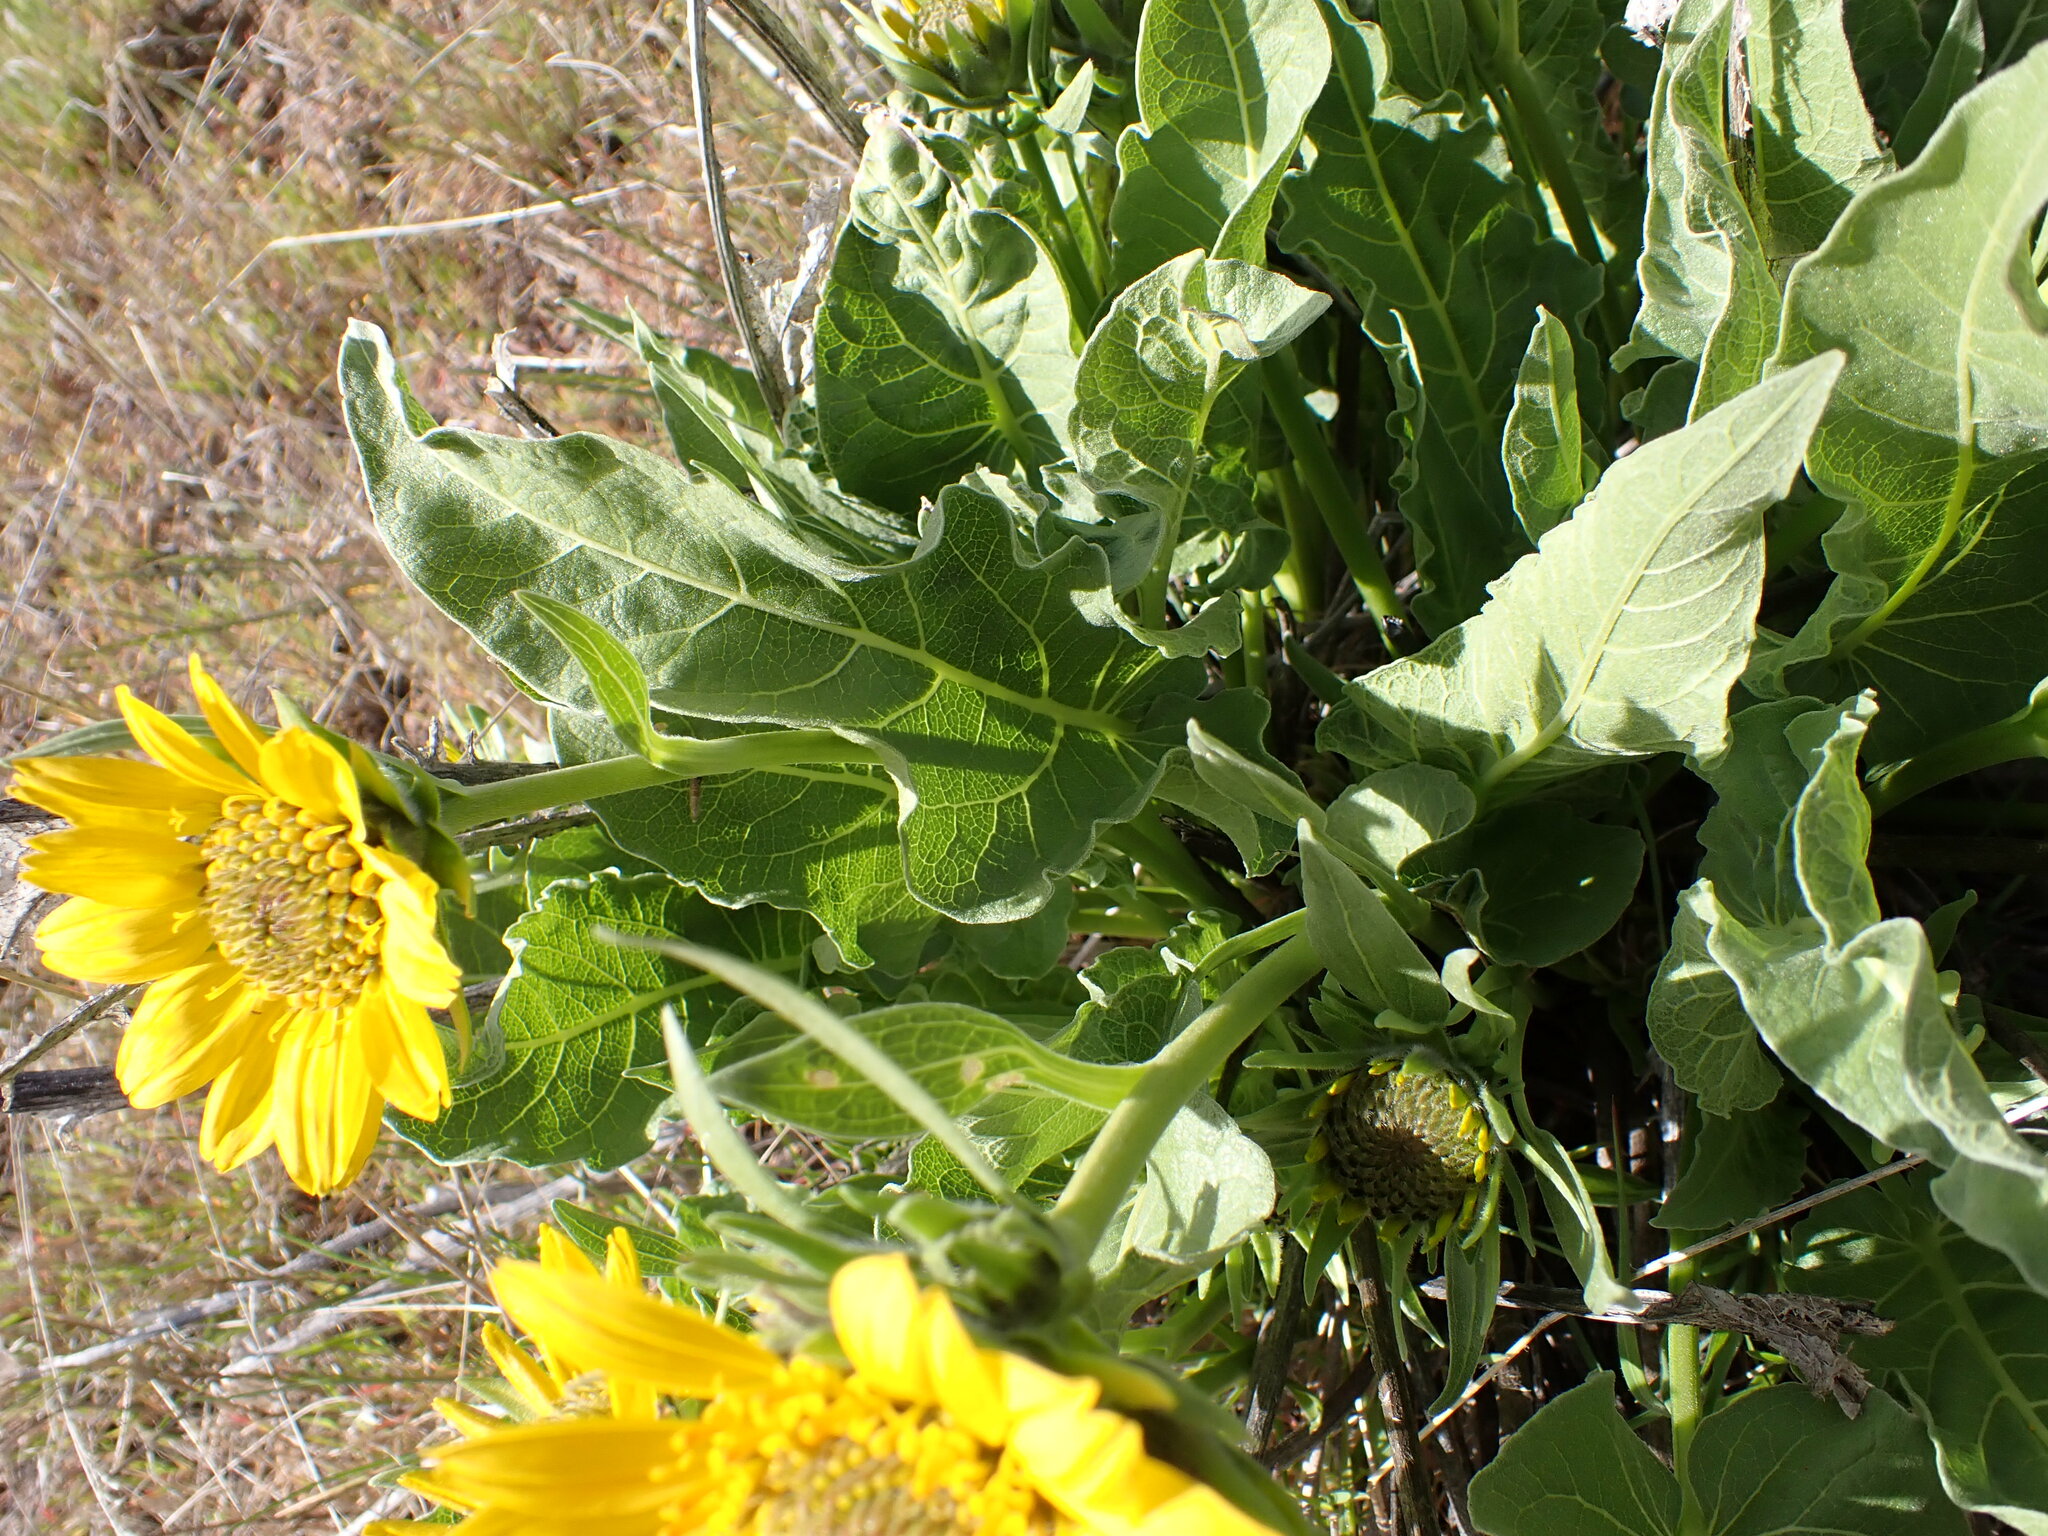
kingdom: Plantae
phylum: Tracheophyta
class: Magnoliopsida
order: Asterales
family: Asteraceae
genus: Balsamorhiza
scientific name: Balsamorhiza careyana
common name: Carey's balsamroot
